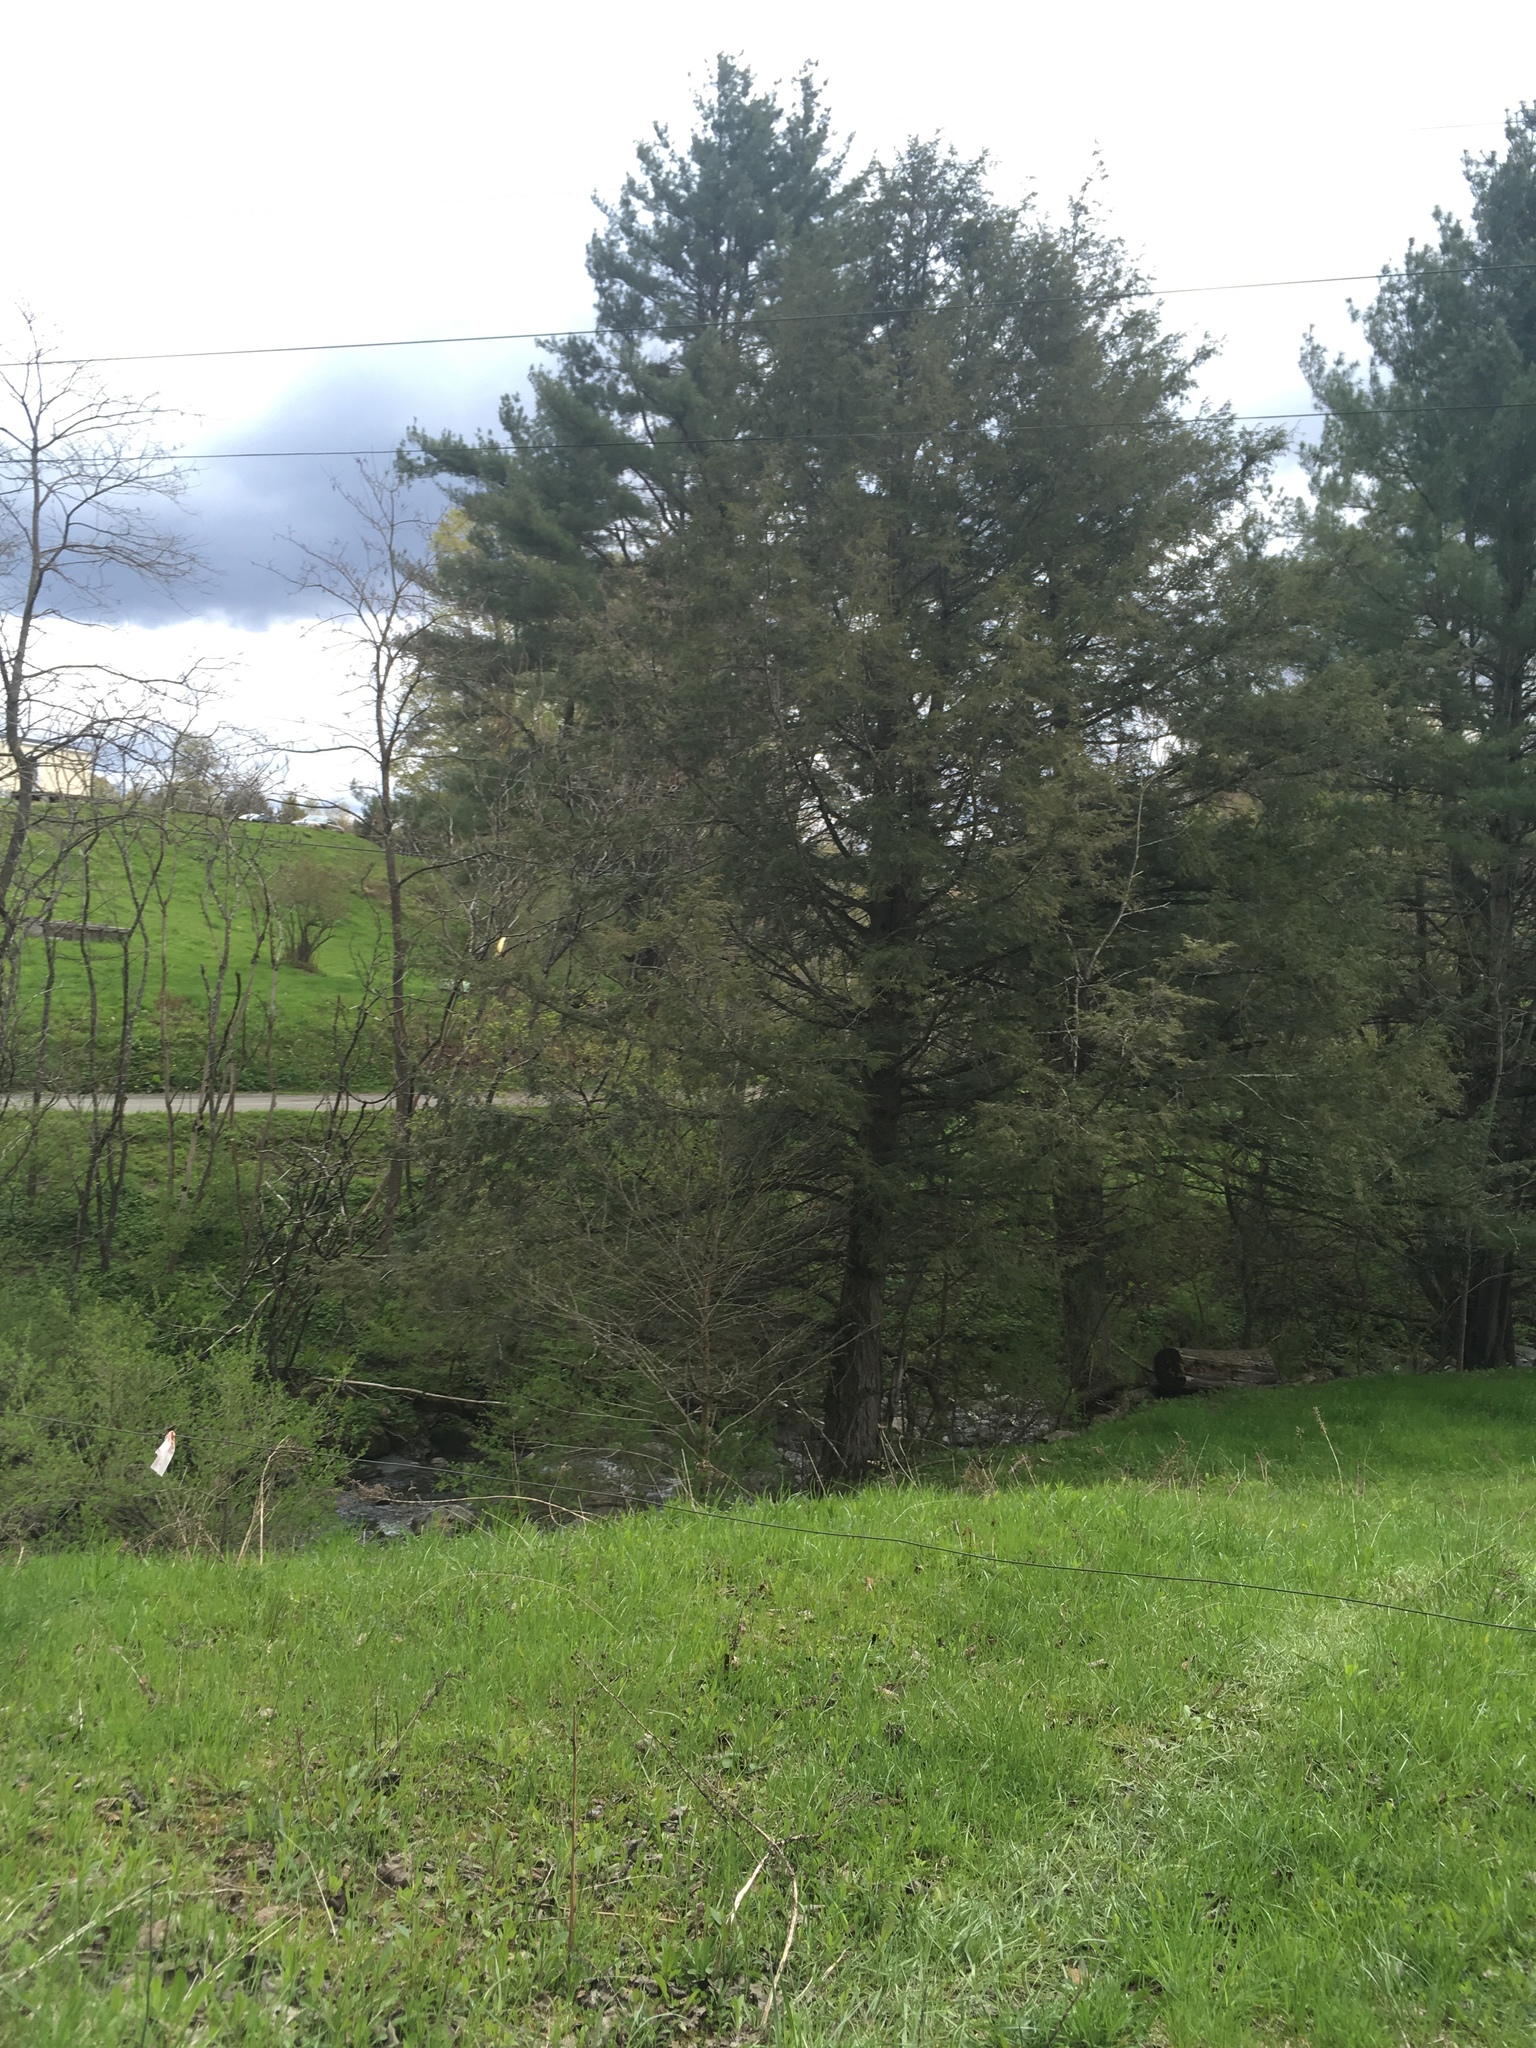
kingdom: Plantae
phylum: Tracheophyta
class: Pinopsida
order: Pinales
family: Pinaceae
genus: Tsuga
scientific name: Tsuga canadensis
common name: Eastern hemlock
